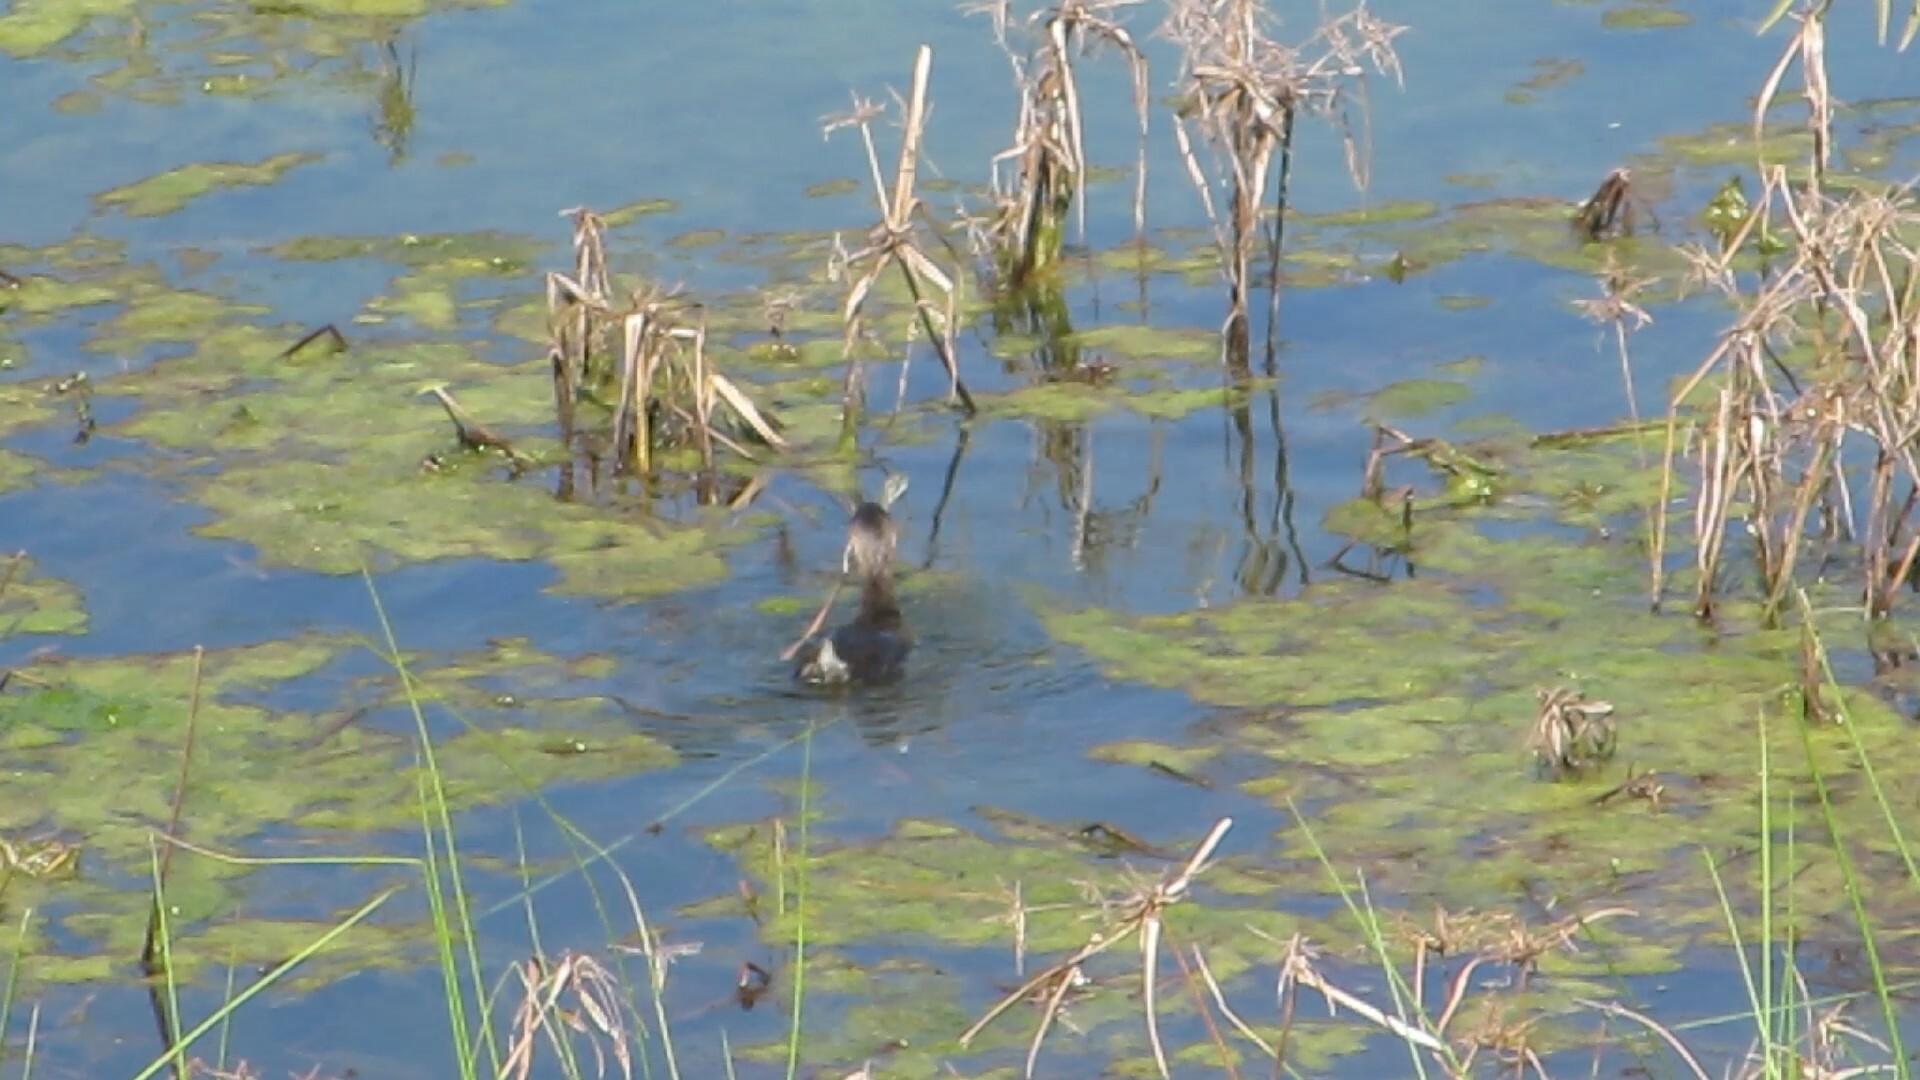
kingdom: Animalia
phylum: Chordata
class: Aves
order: Podicipediformes
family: Podicipedidae
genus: Podilymbus
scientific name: Podilymbus podiceps
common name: Pied-billed grebe
